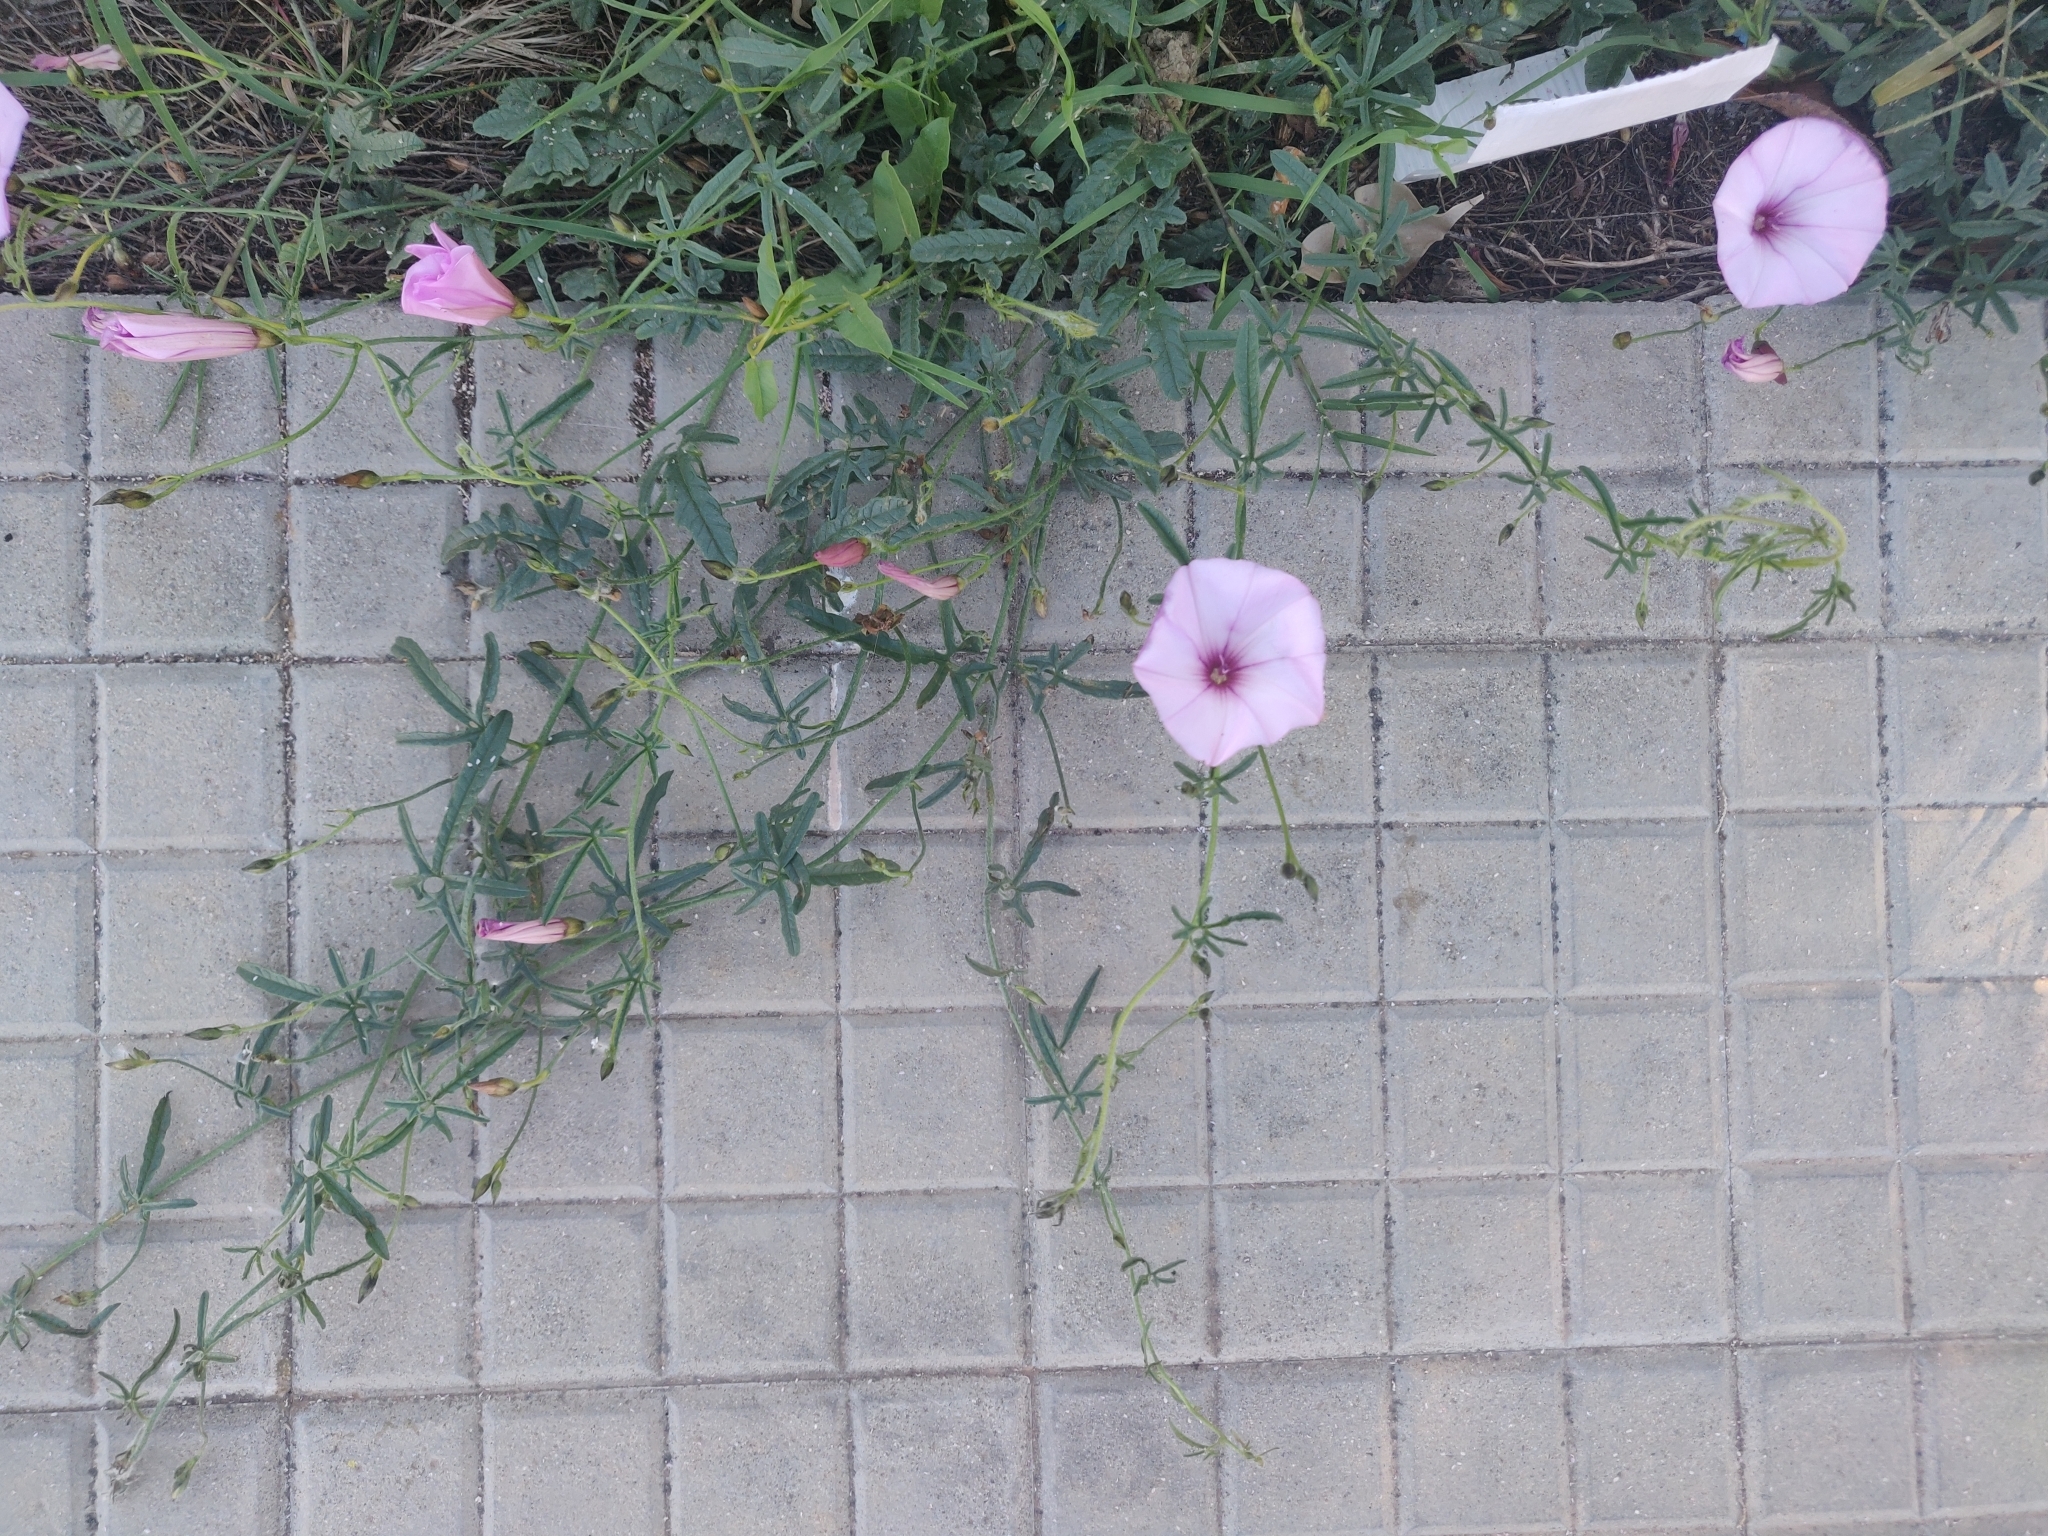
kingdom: Plantae
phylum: Tracheophyta
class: Magnoliopsida
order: Solanales
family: Convolvulaceae
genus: Convolvulus
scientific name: Convolvulus althaeoides
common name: Mallow bindweed
